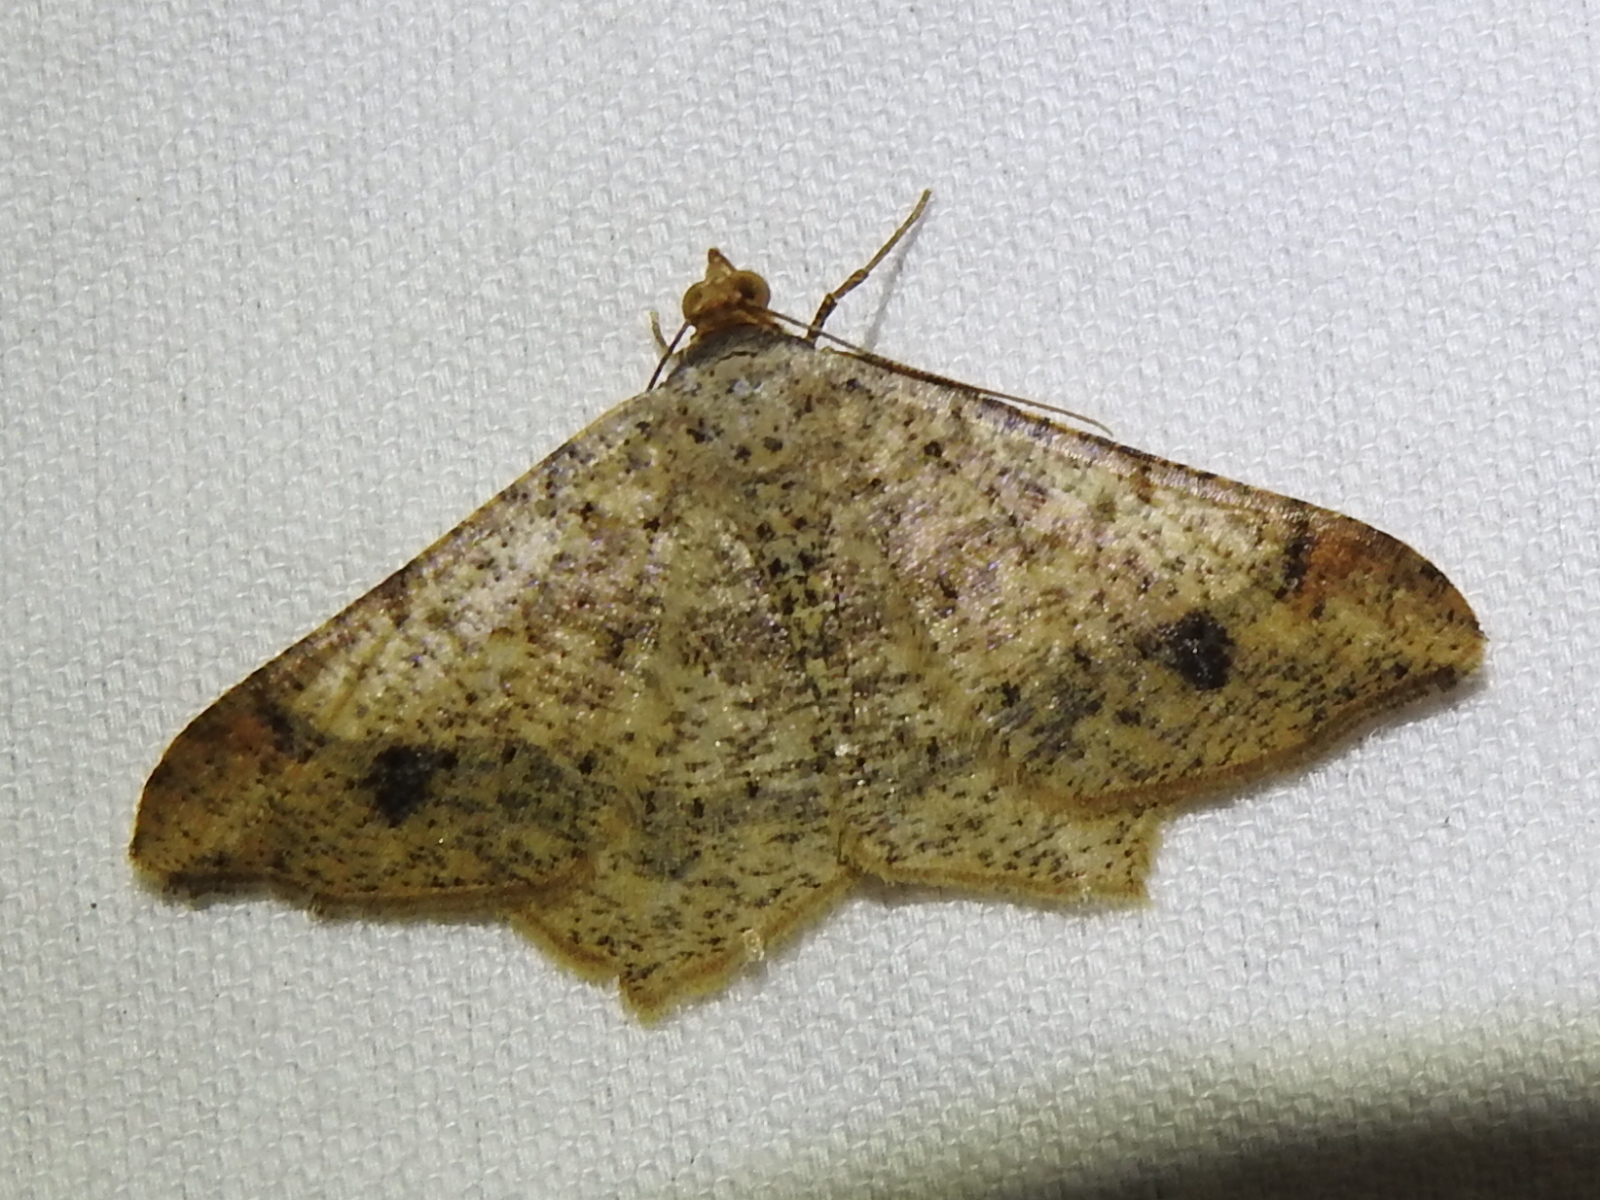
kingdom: Animalia
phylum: Arthropoda
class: Insecta
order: Lepidoptera
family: Geometridae
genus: Macaria
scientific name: Macaria abydata
